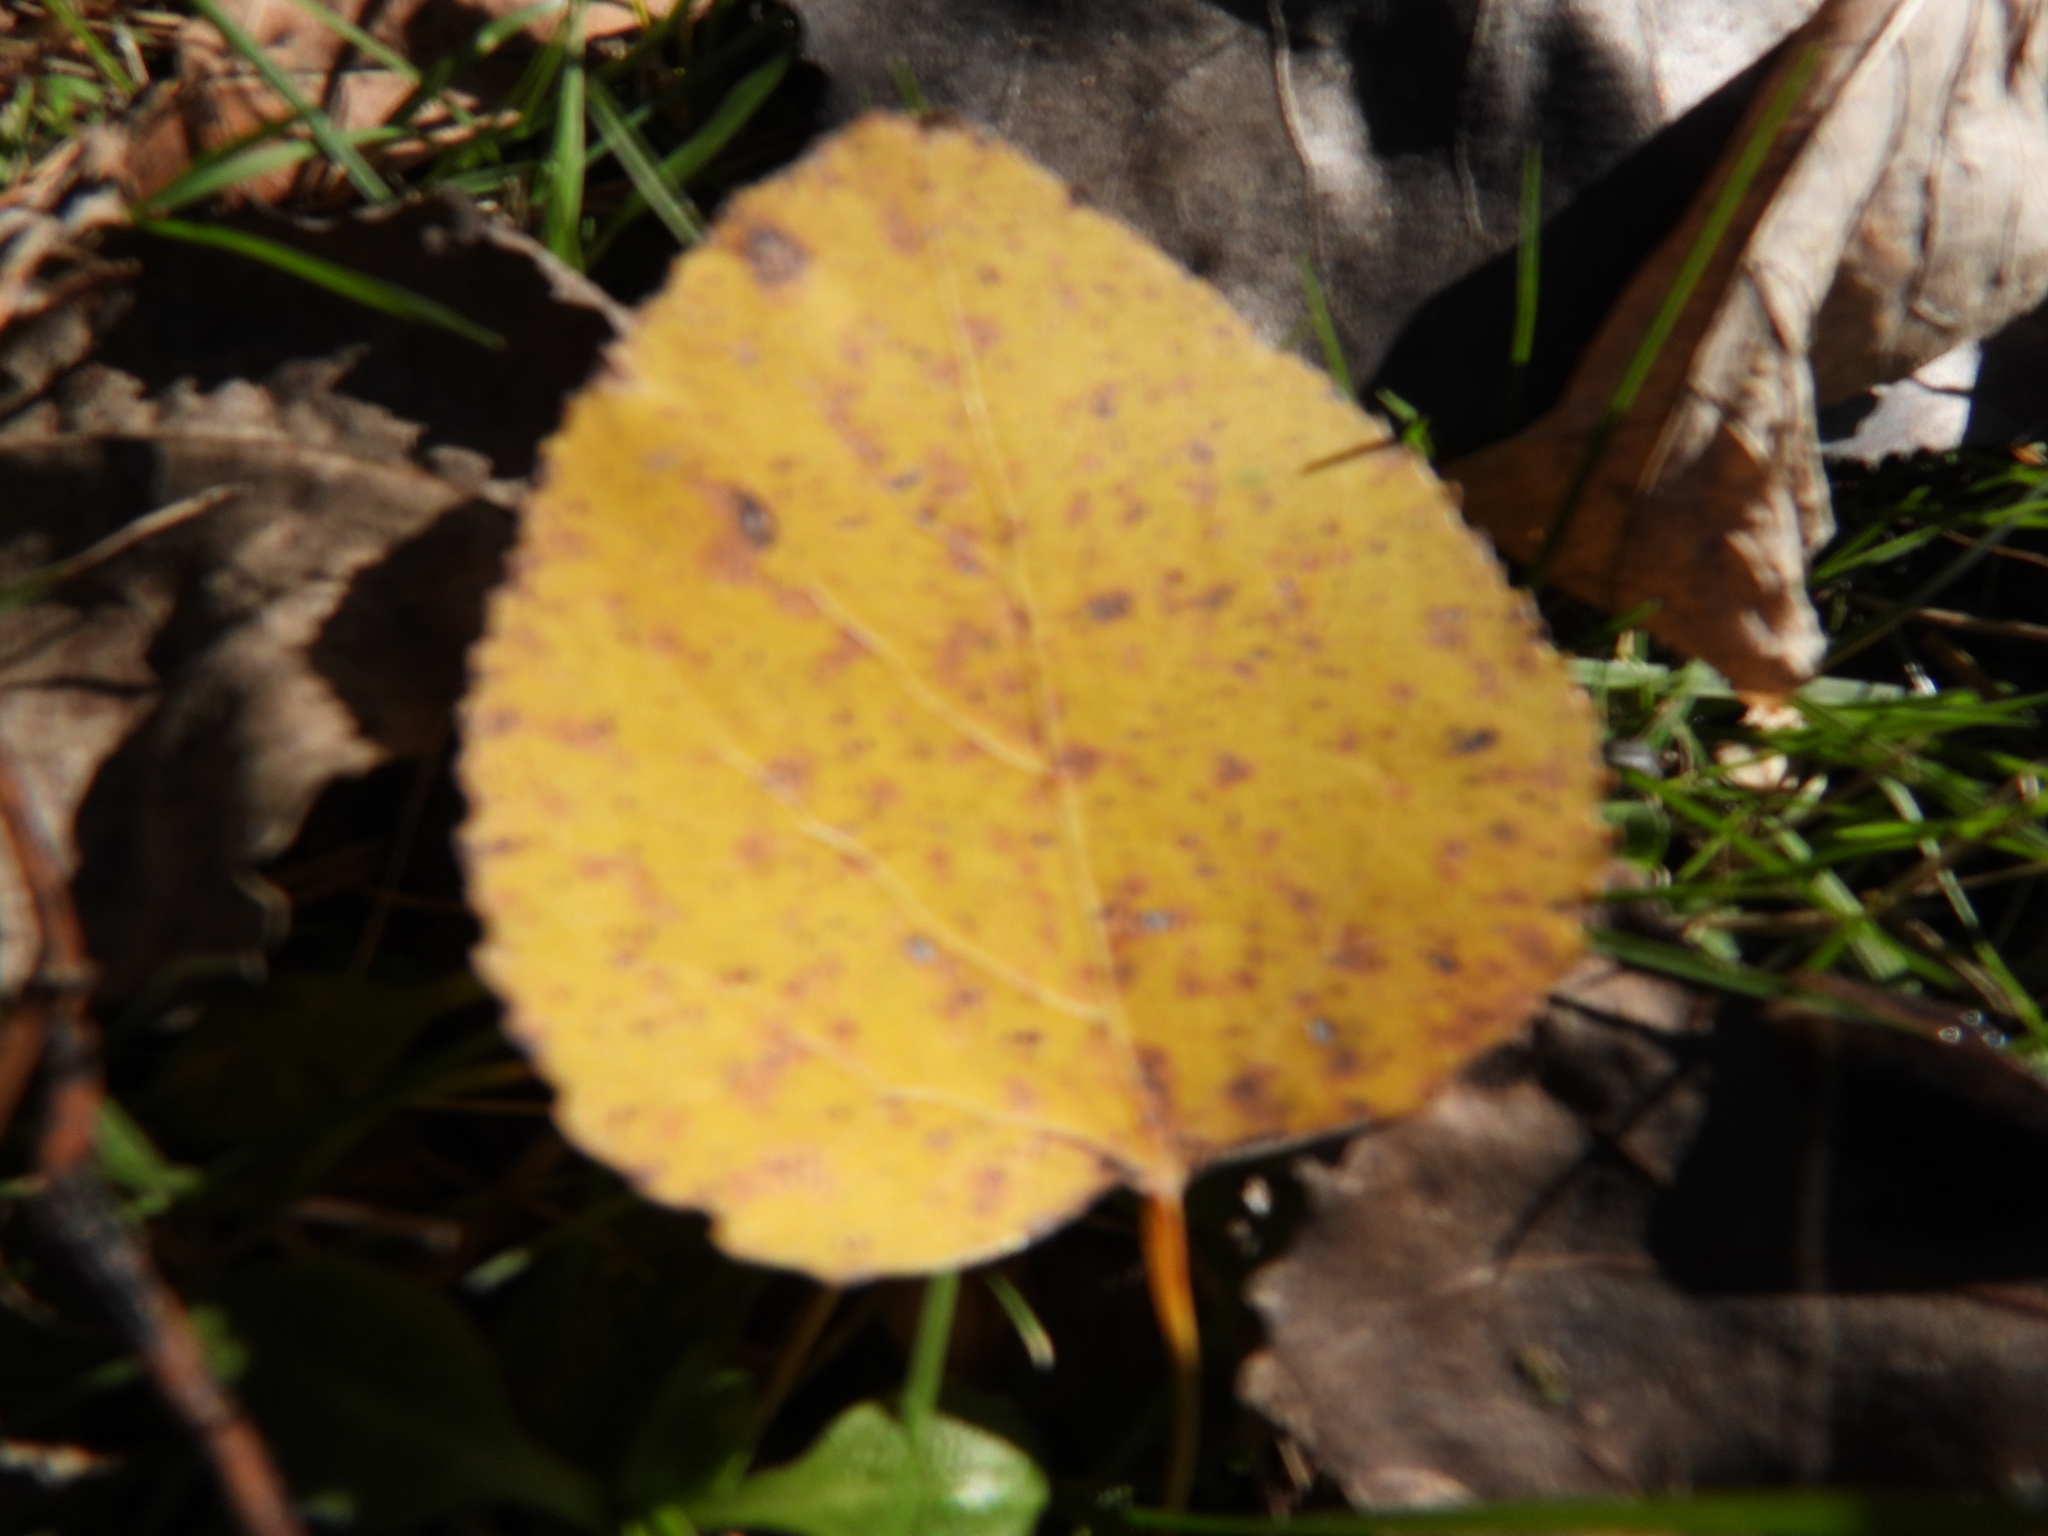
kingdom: Plantae
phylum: Tracheophyta
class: Magnoliopsida
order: Malpighiales
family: Salicaceae
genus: Populus
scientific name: Populus tremuloides
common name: Quaking aspen
